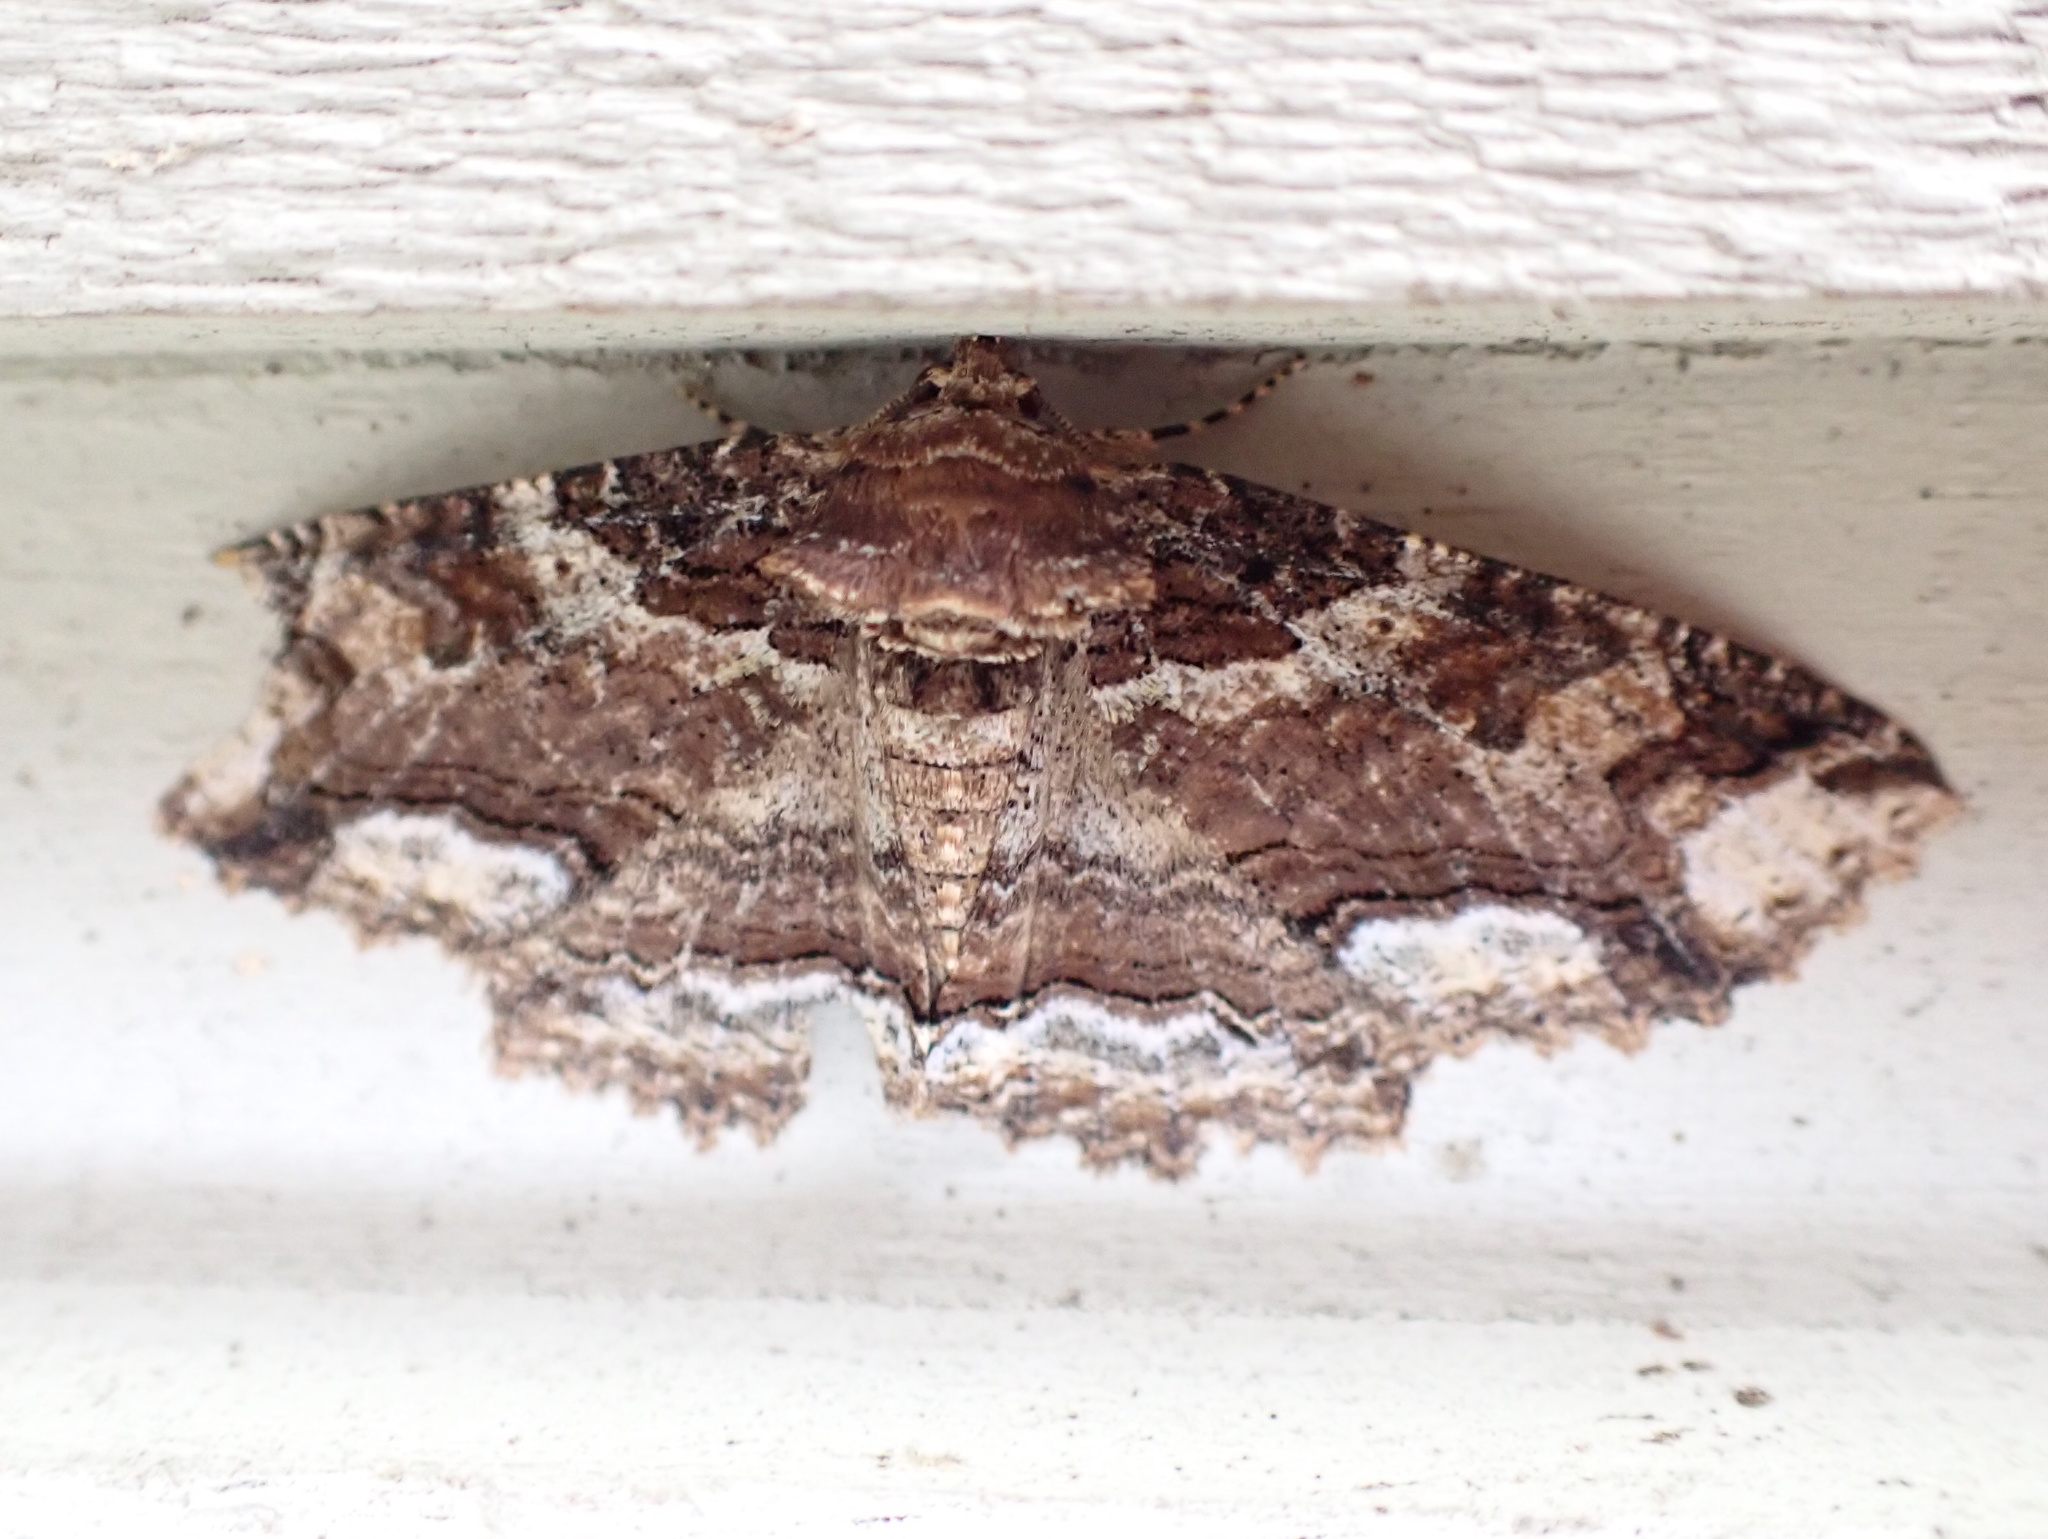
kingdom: Animalia
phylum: Arthropoda
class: Insecta
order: Lepidoptera
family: Erebidae
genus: Zale
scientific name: Zale minerea
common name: Colorful zale moth
